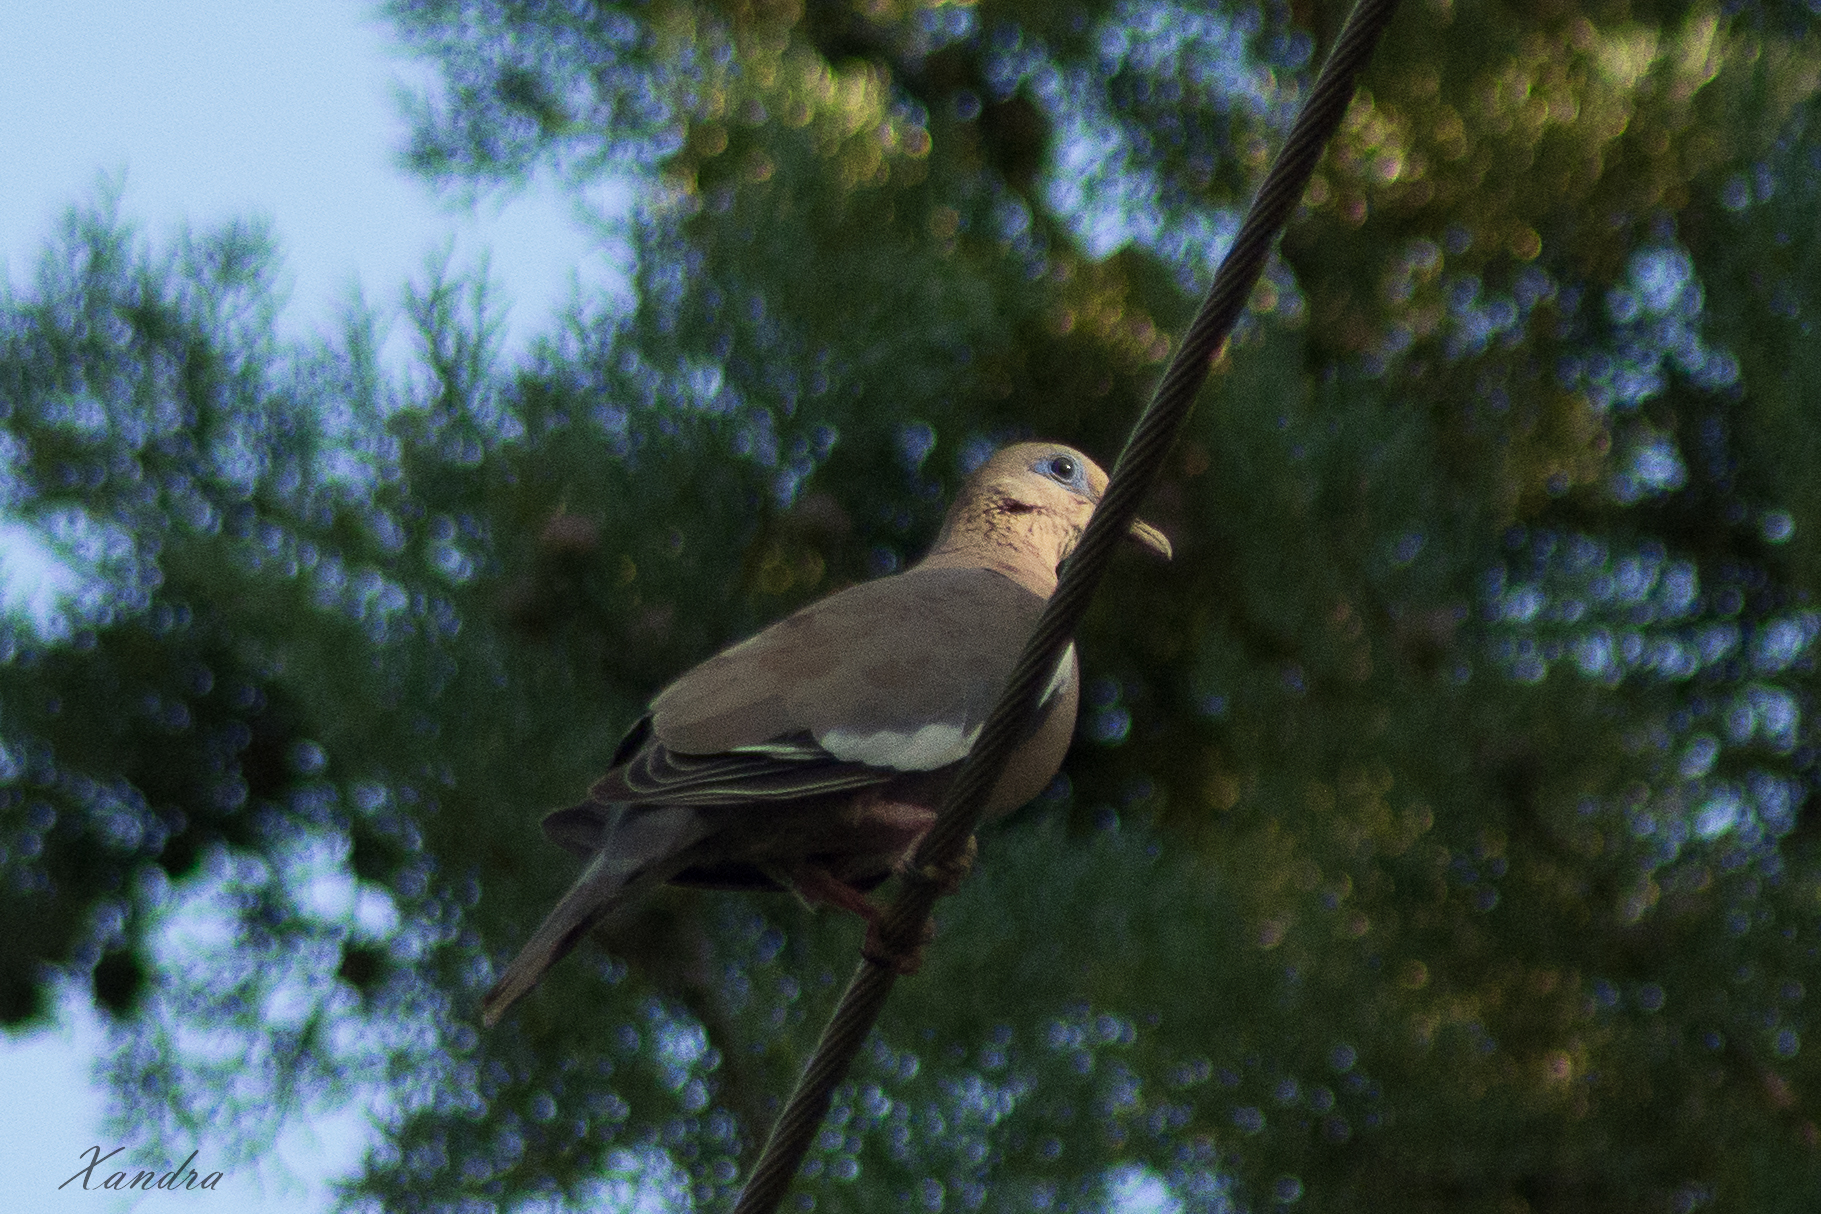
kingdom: Animalia
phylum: Chordata
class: Aves
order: Columbiformes
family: Columbidae
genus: Zenaida
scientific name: Zenaida meloda
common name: West peruvian dove
